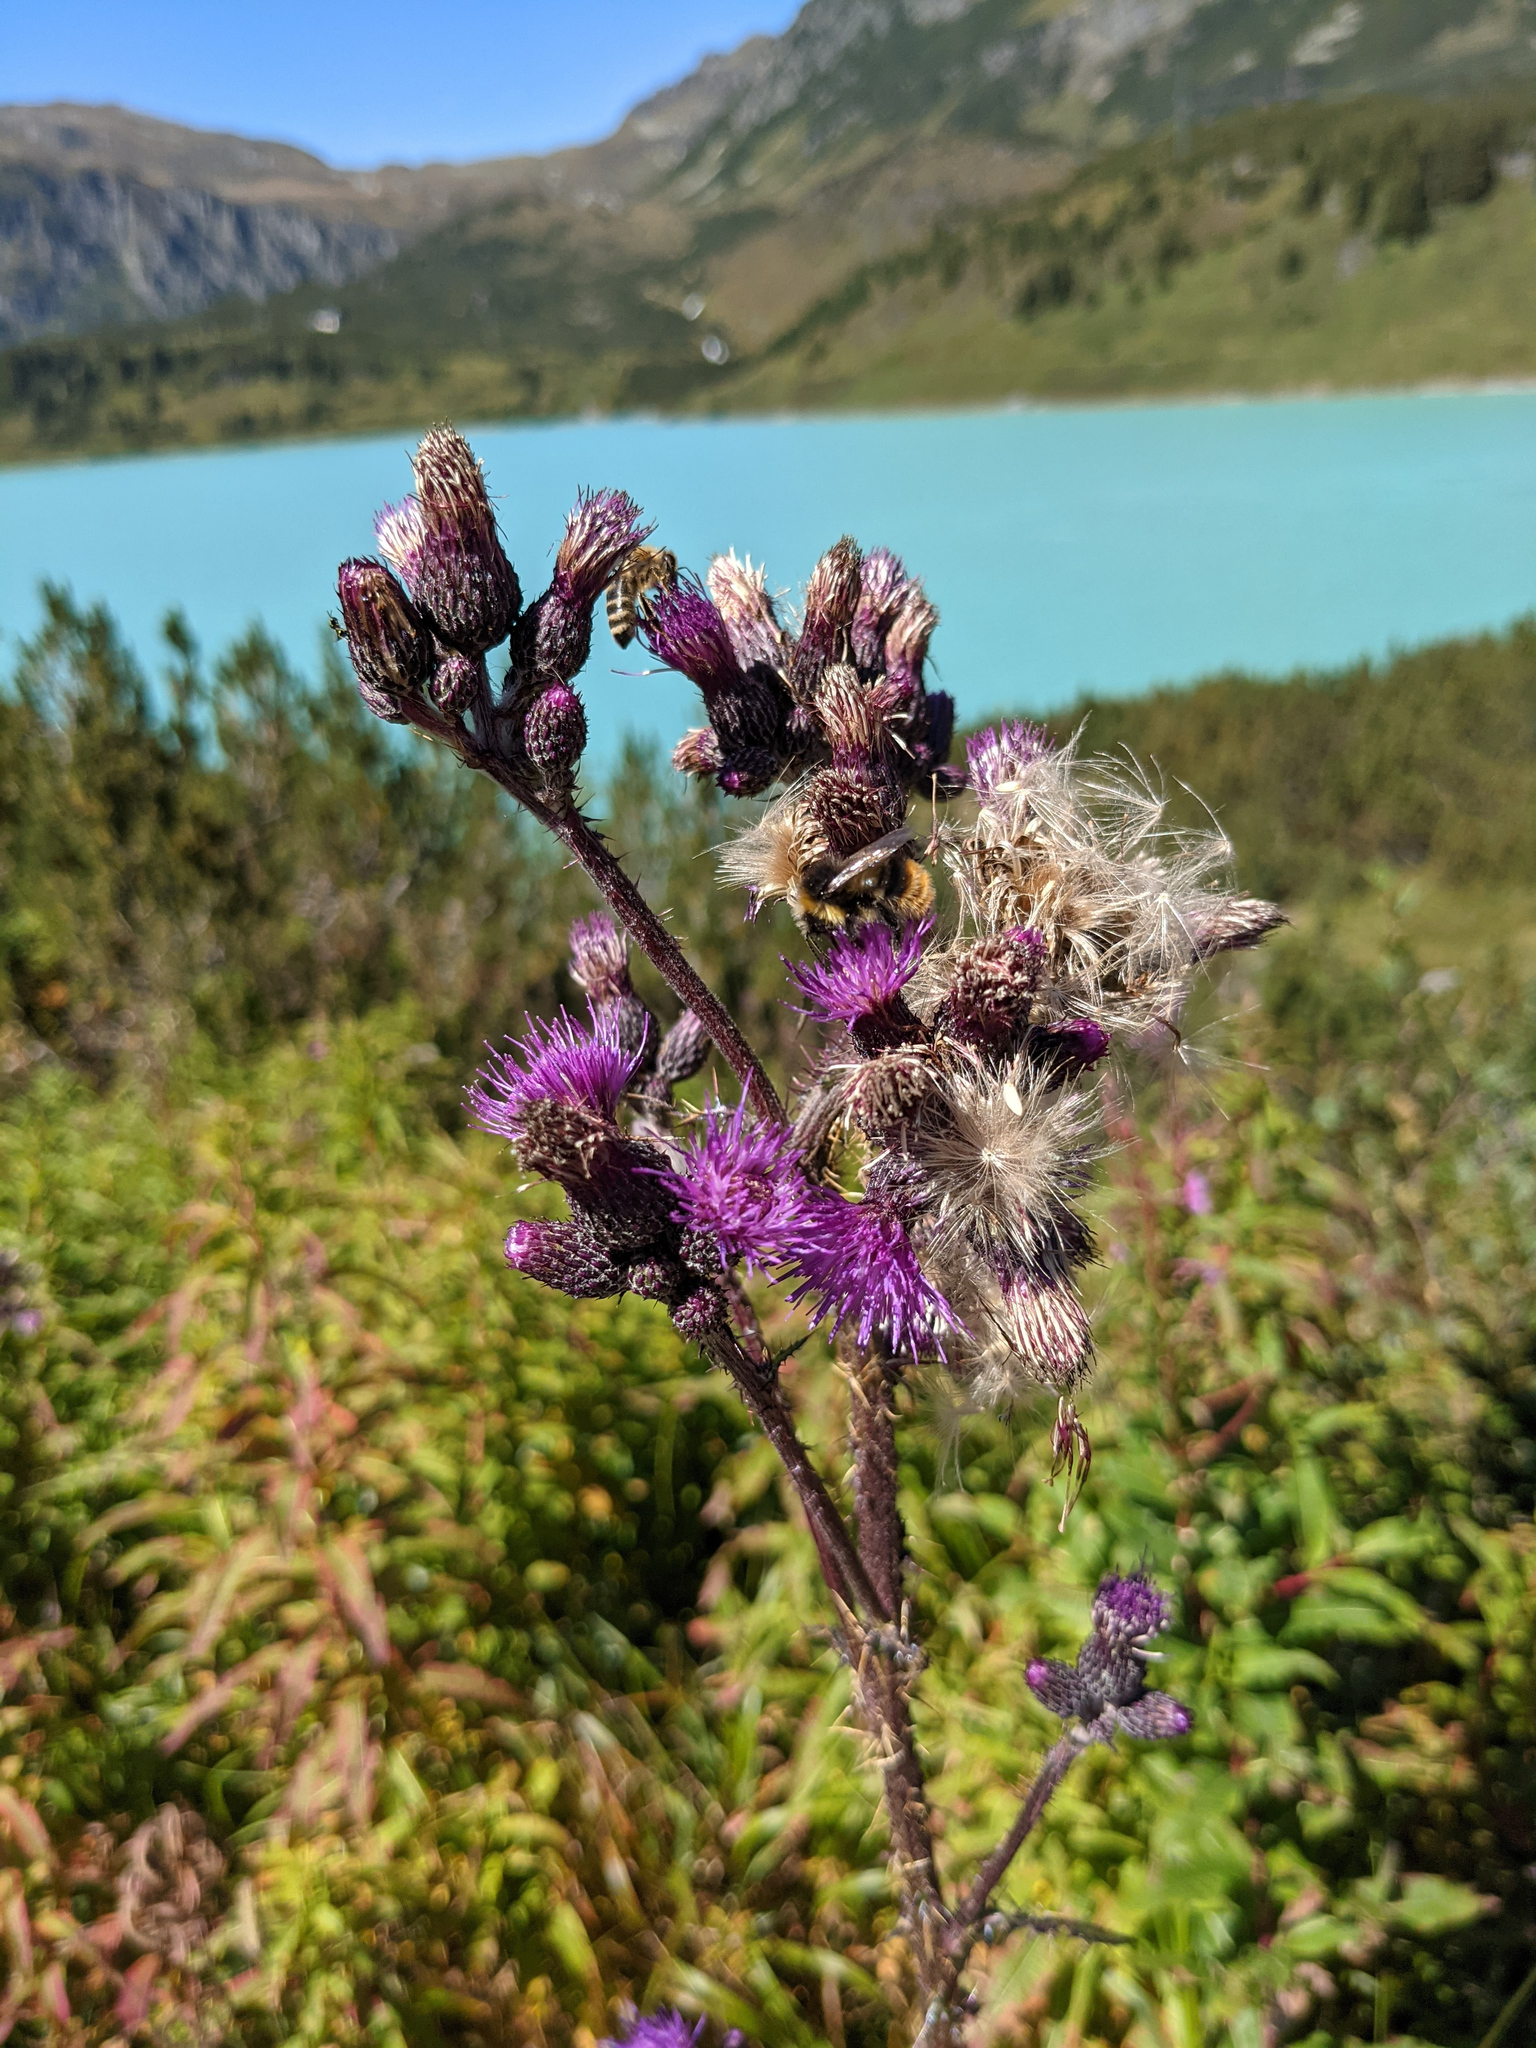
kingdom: Plantae
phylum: Tracheophyta
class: Magnoliopsida
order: Asterales
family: Asteraceae
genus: Cirsium
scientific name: Cirsium palustre
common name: Marsh thistle
